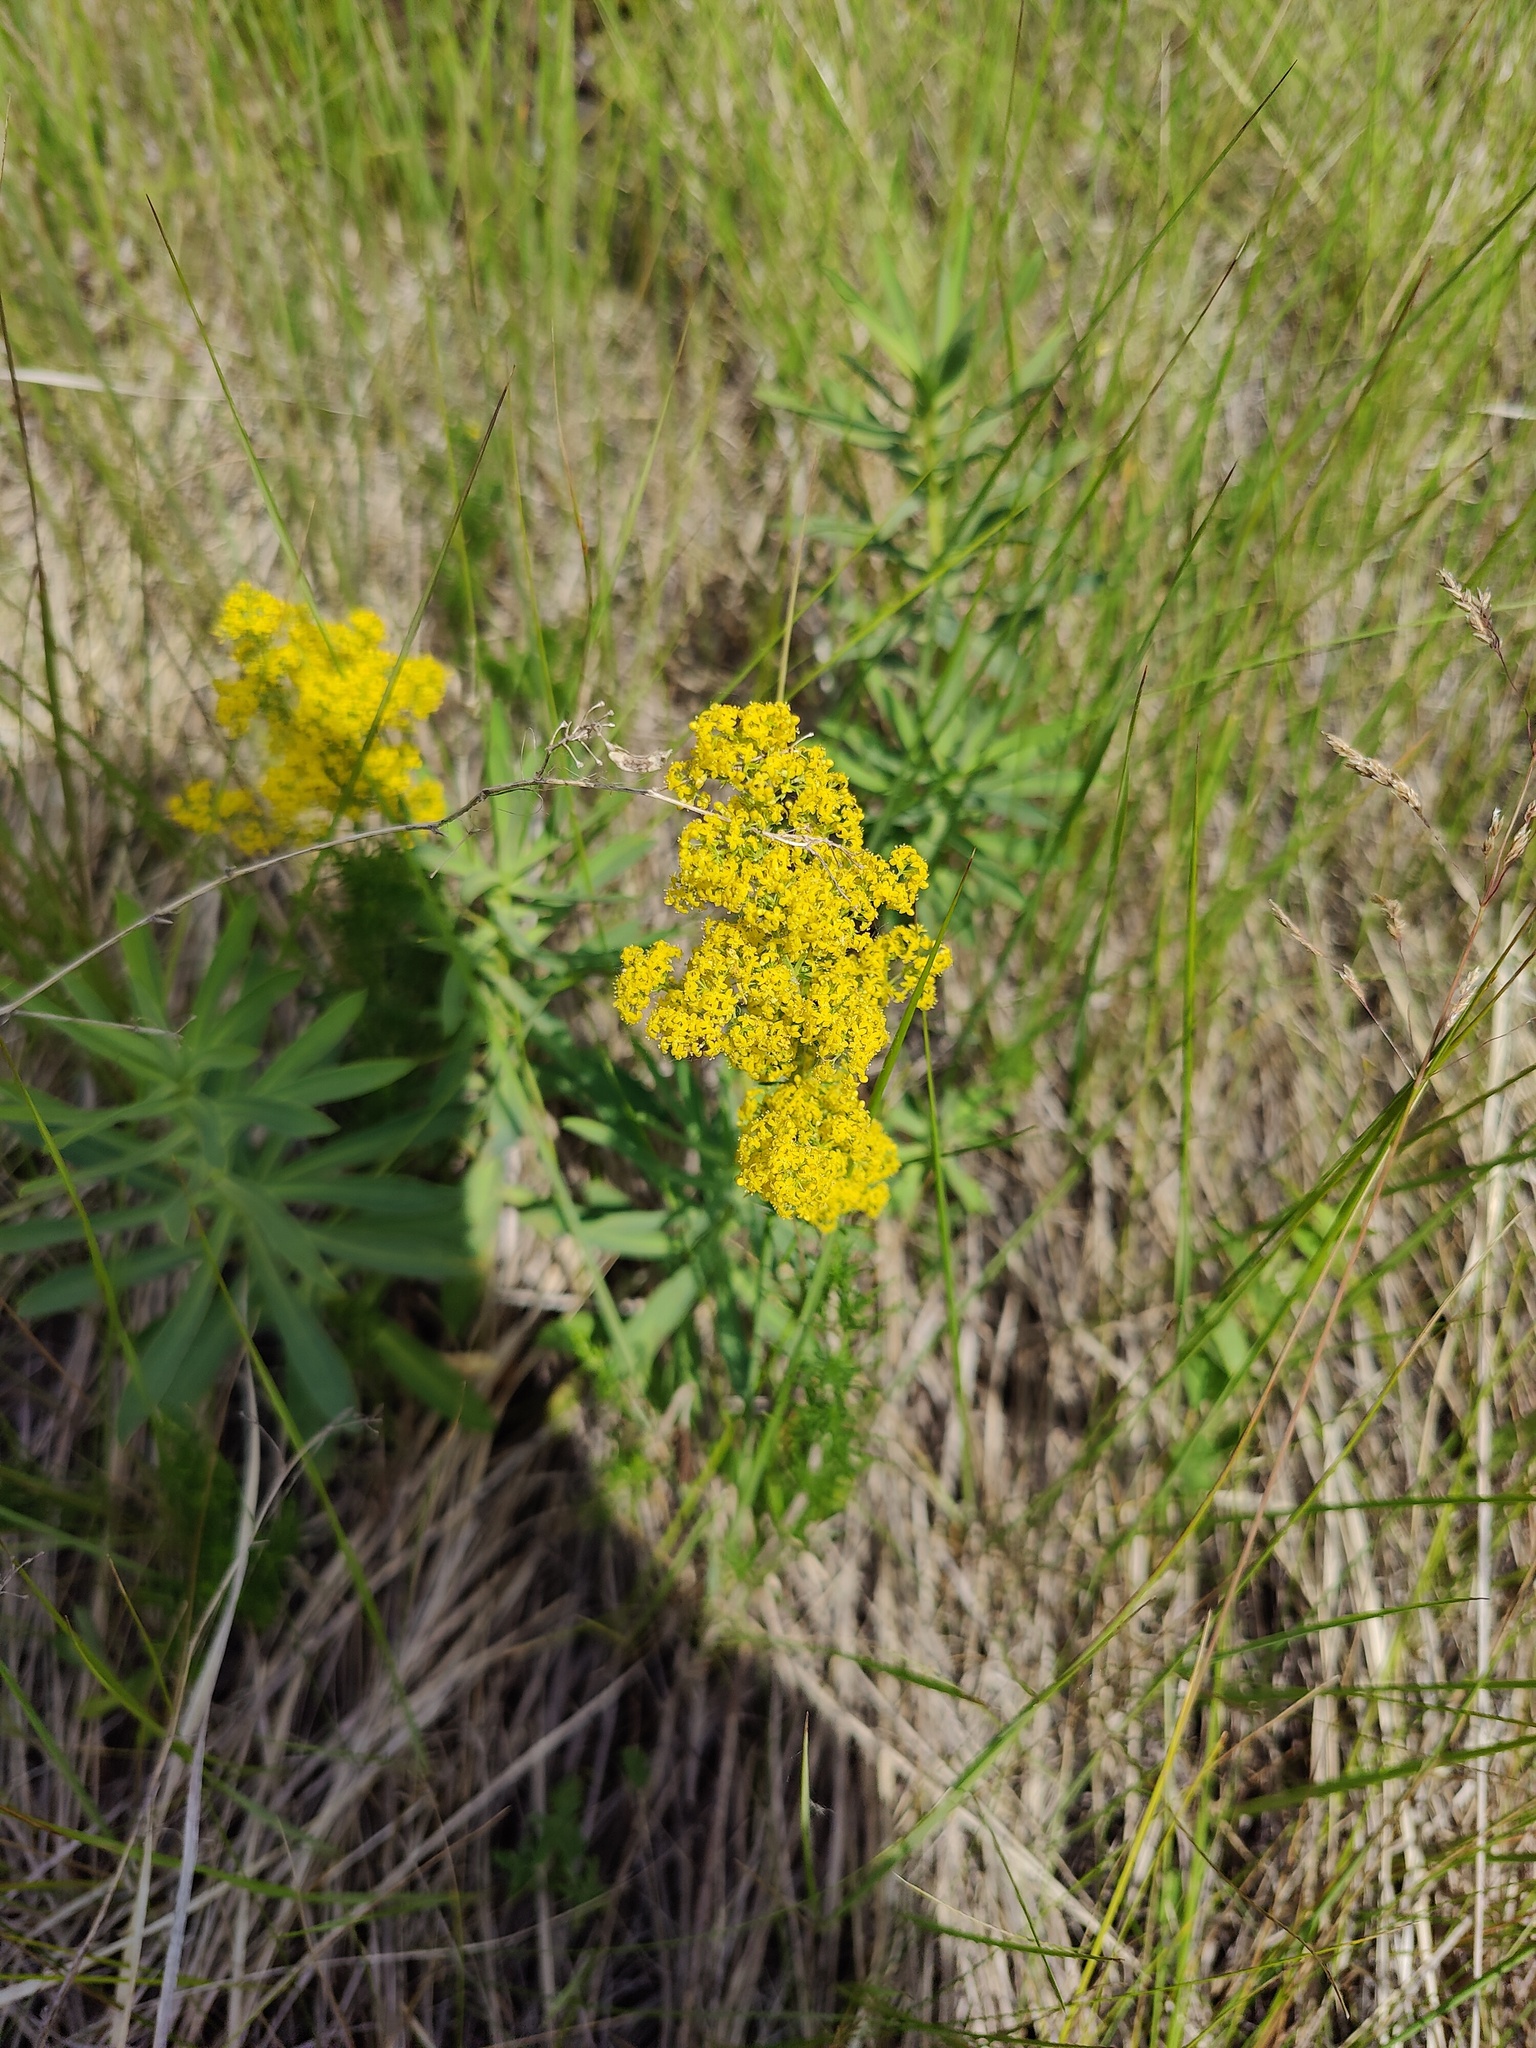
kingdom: Plantae
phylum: Tracheophyta
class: Magnoliopsida
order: Gentianales
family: Rubiaceae
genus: Galium
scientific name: Galium verum
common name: Lady's bedstraw
